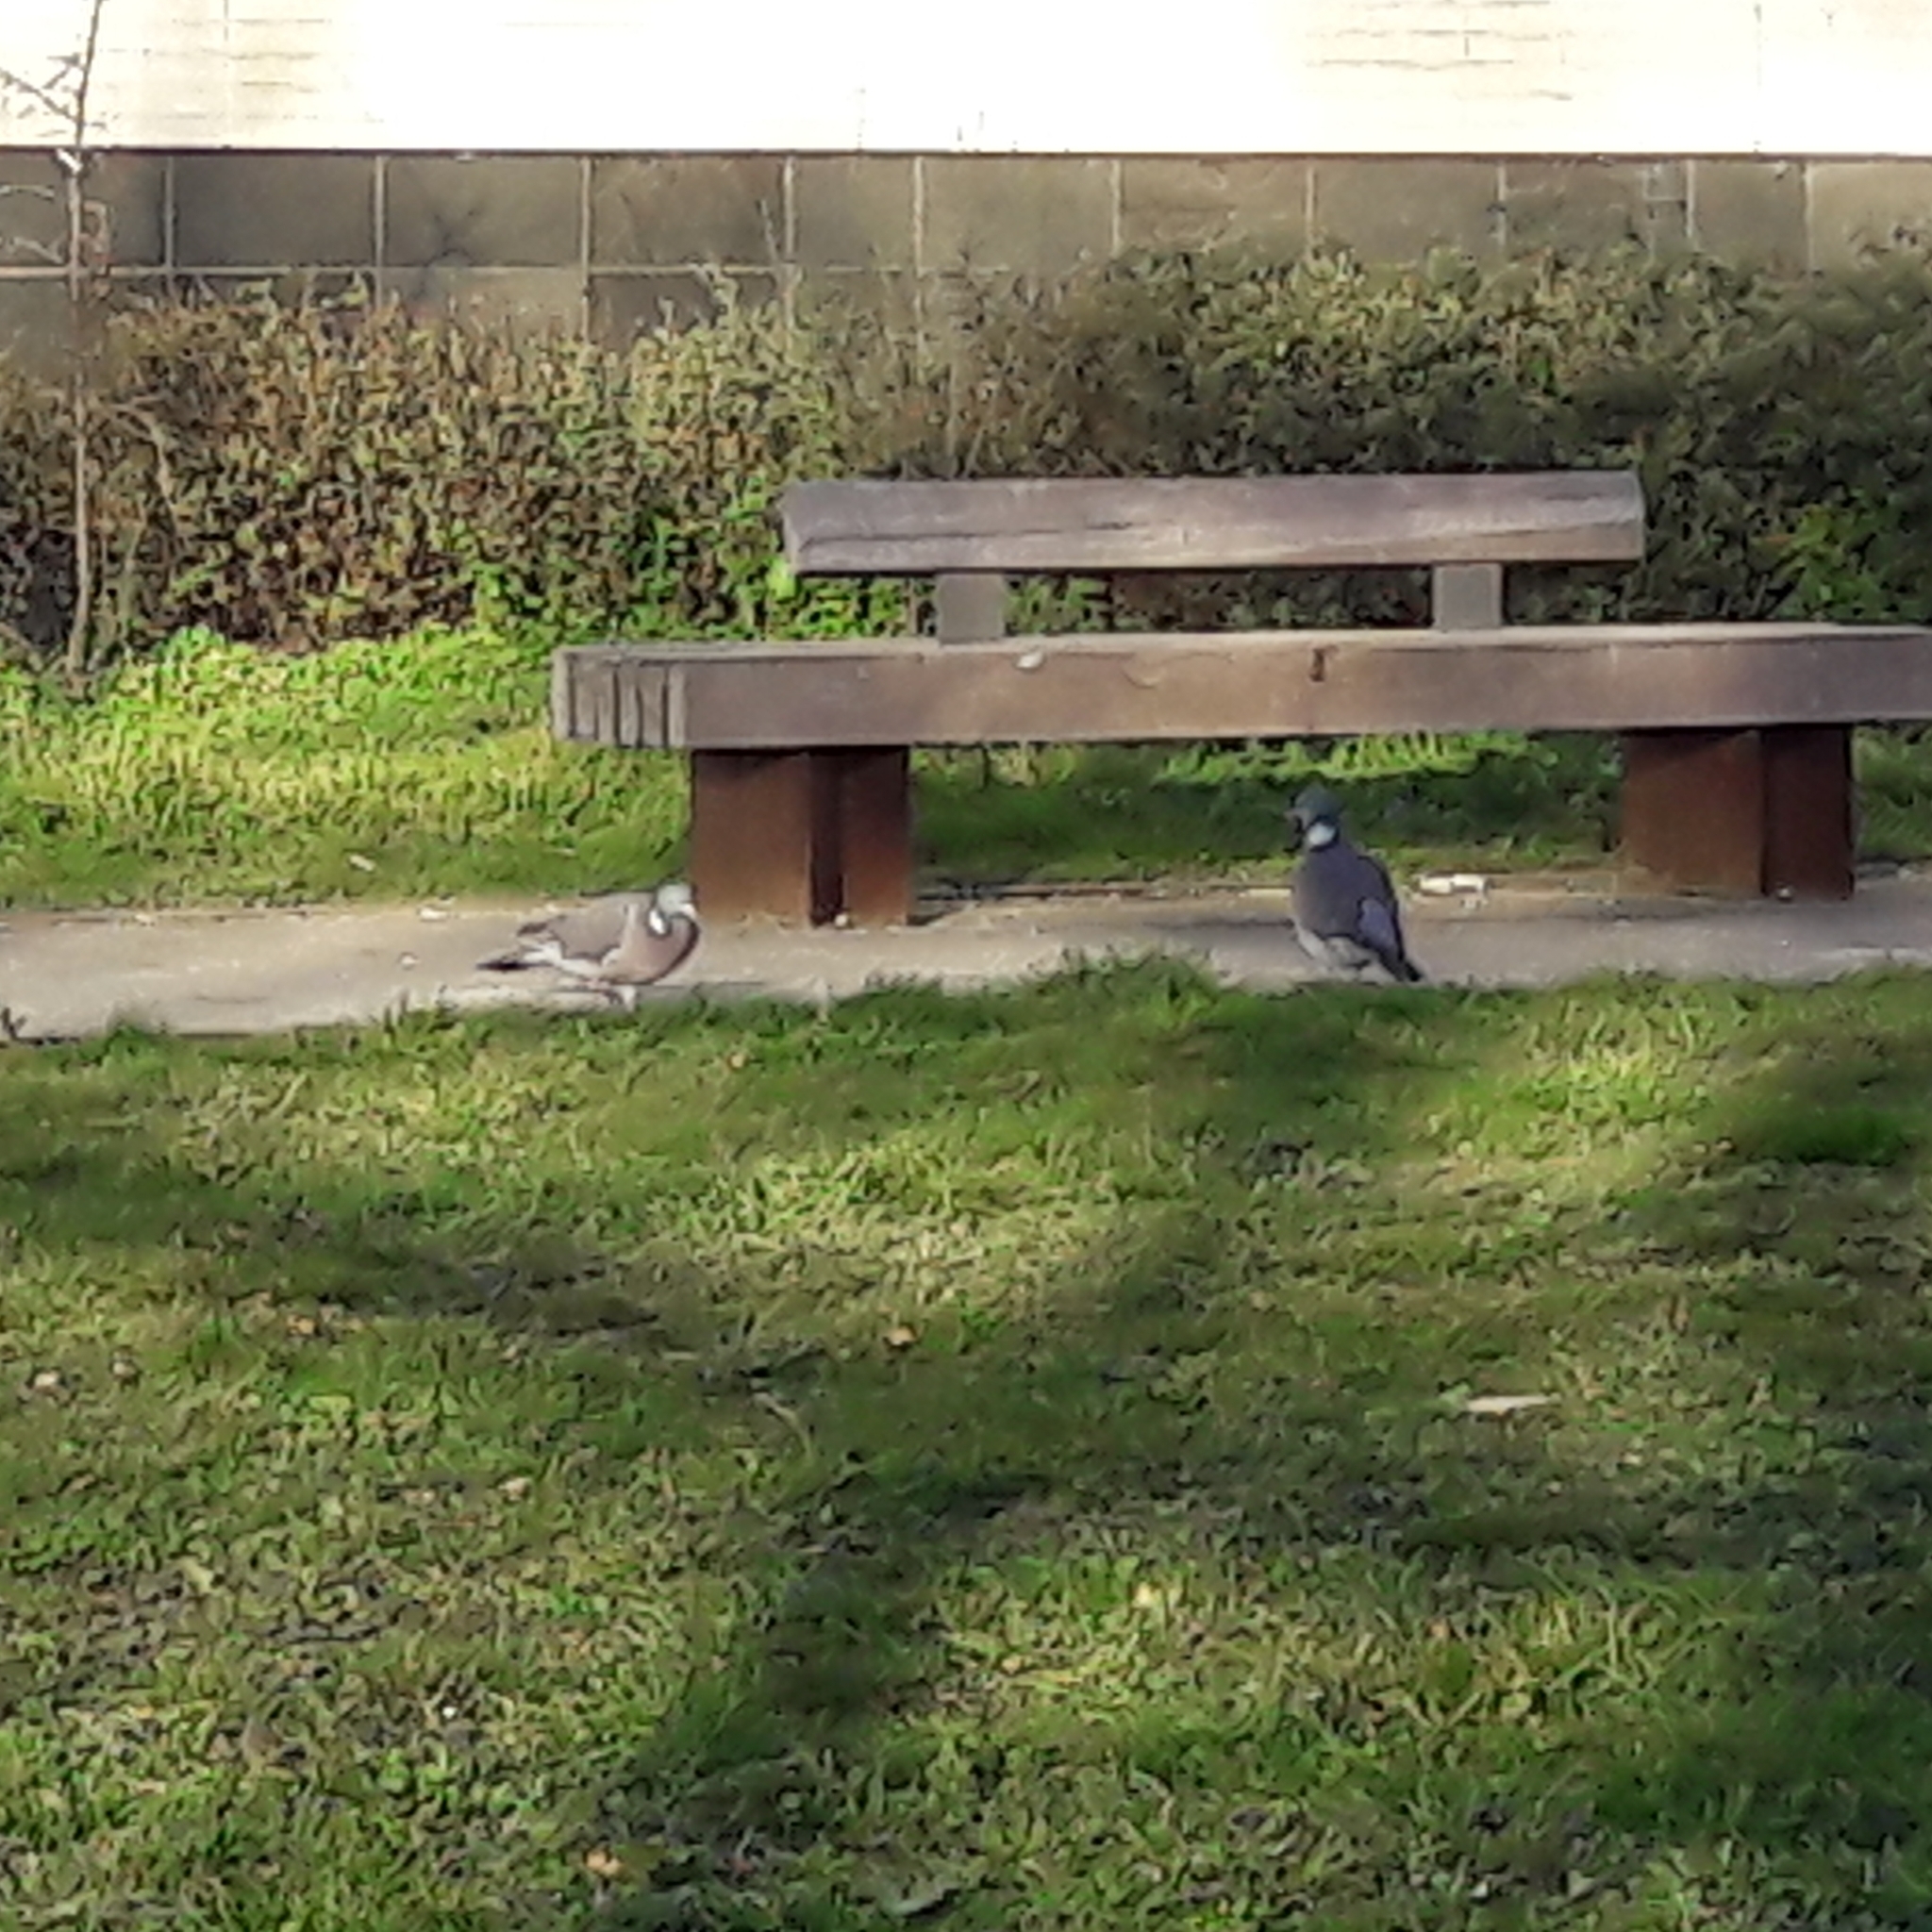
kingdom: Animalia
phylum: Chordata
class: Aves
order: Columbiformes
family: Columbidae
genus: Columba
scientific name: Columba palumbus
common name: Common wood pigeon
